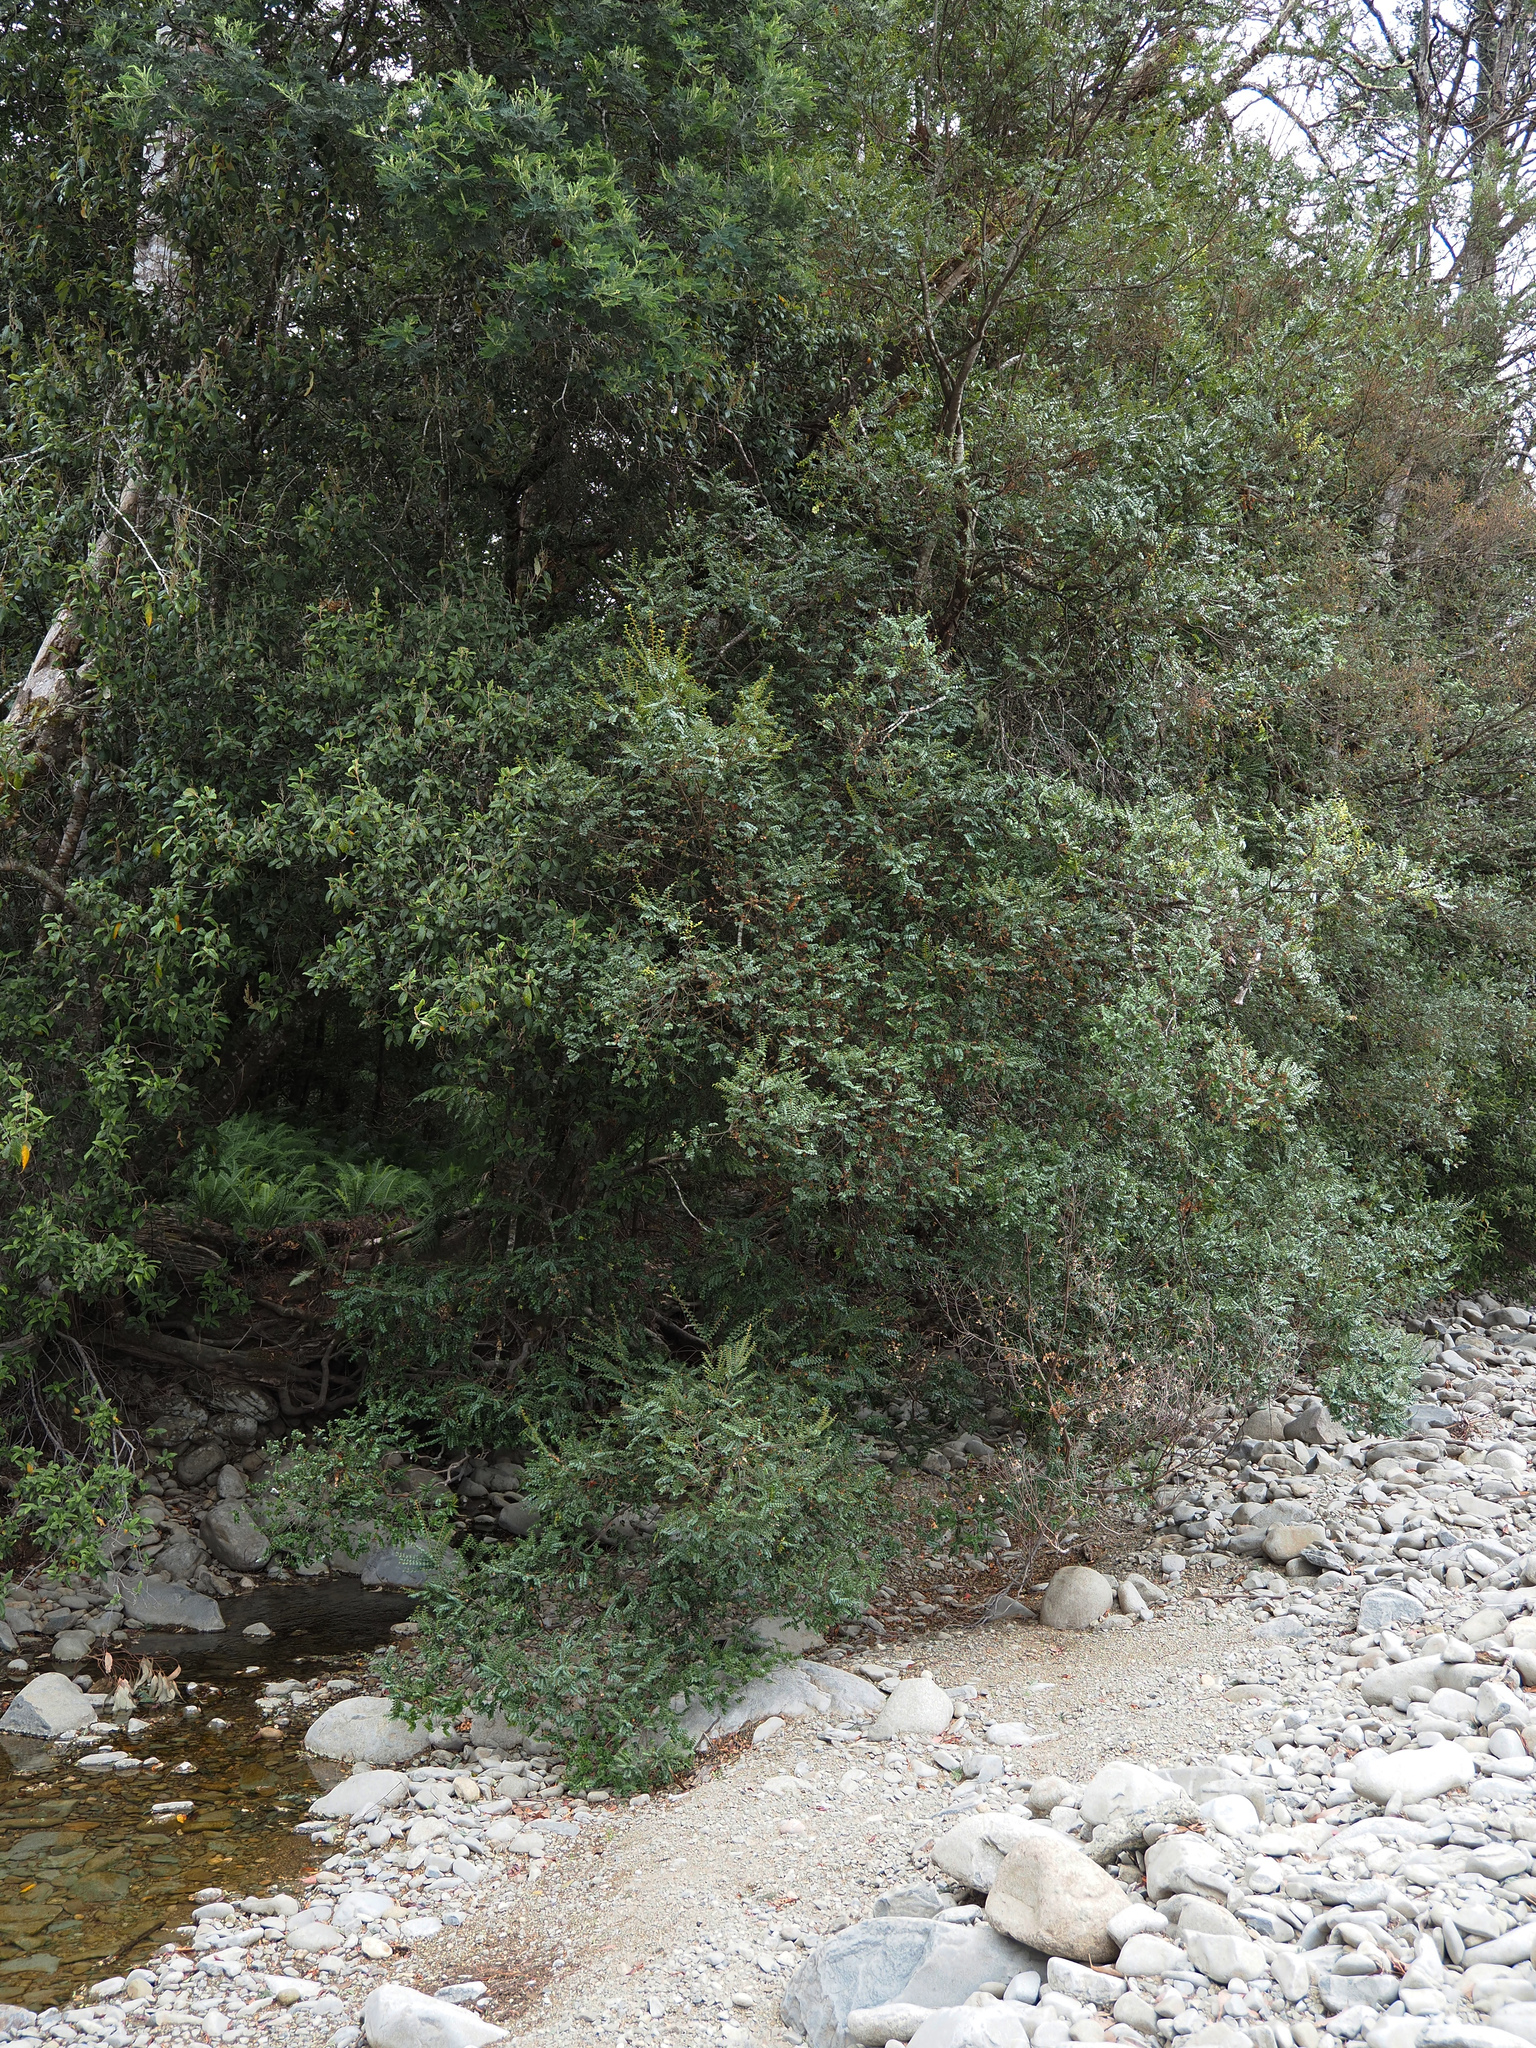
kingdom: Plantae
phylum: Tracheophyta
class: Magnoliopsida
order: Fagales
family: Nothofagaceae
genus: Nothofagus
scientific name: Nothofagus cunninghamii
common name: Myrtle beech
